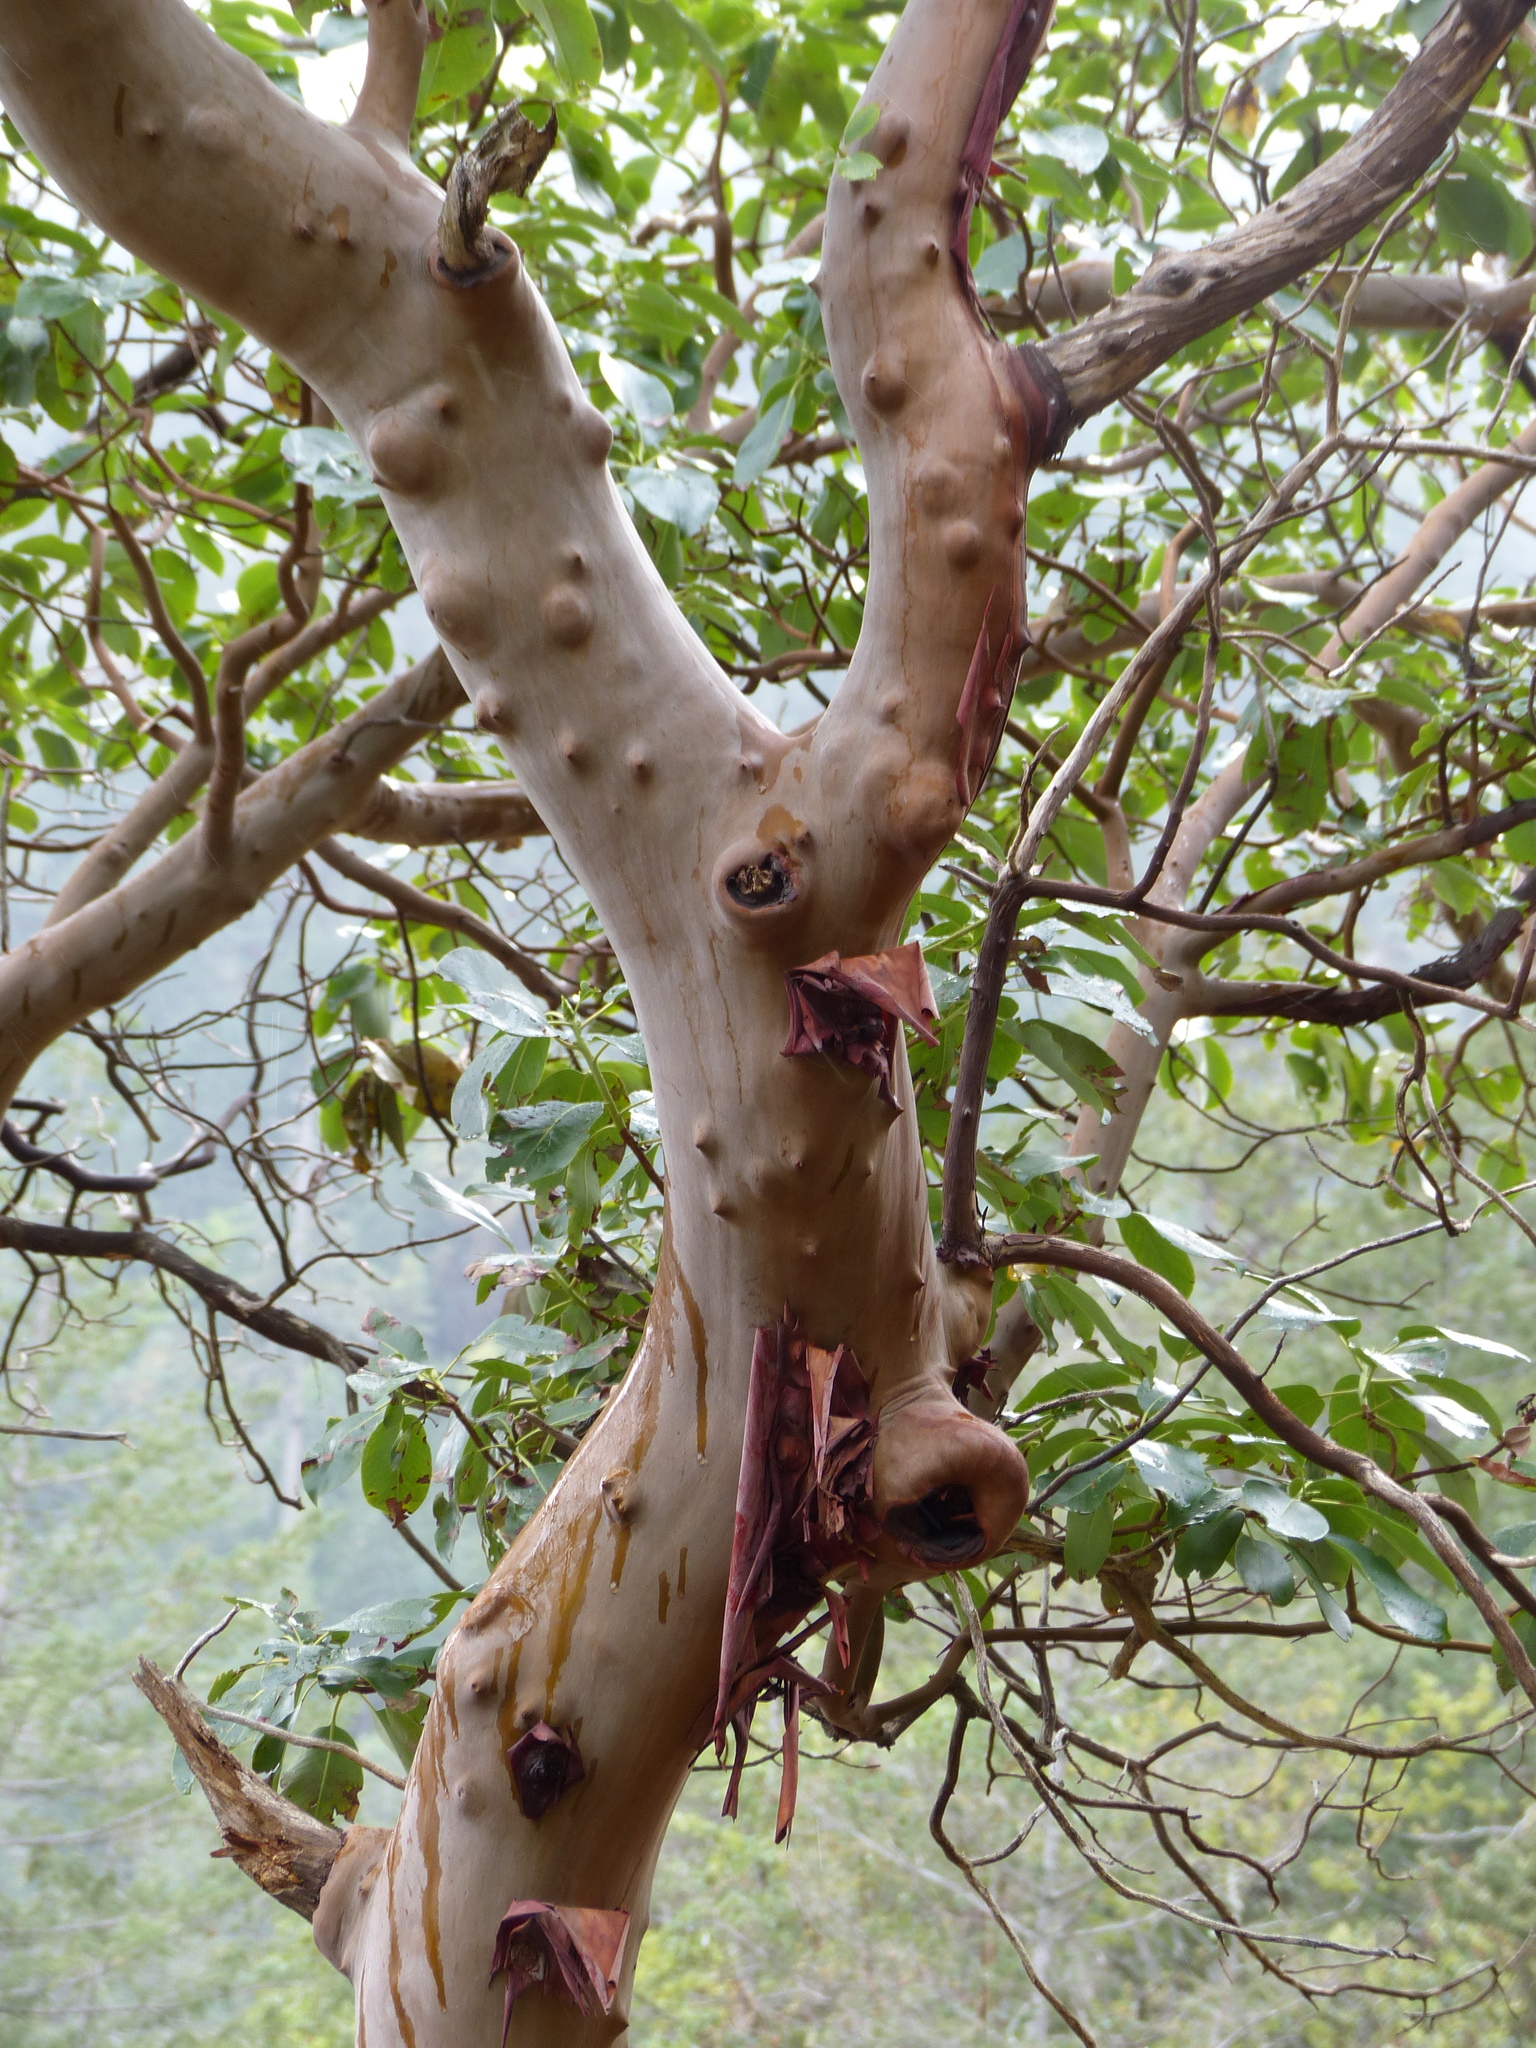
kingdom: Plantae
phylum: Tracheophyta
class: Magnoliopsida
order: Ericales
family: Ericaceae
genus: Arbutus
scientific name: Arbutus menziesii
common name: Pacific madrone
